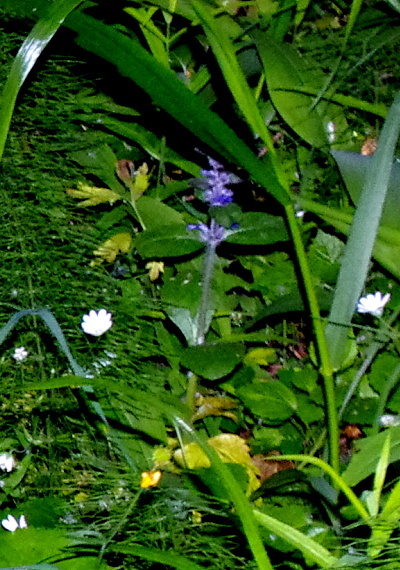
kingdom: Plantae
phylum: Tracheophyta
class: Magnoliopsida
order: Lamiales
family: Lamiaceae
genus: Ajuga
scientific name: Ajuga reptans
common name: Bugle
